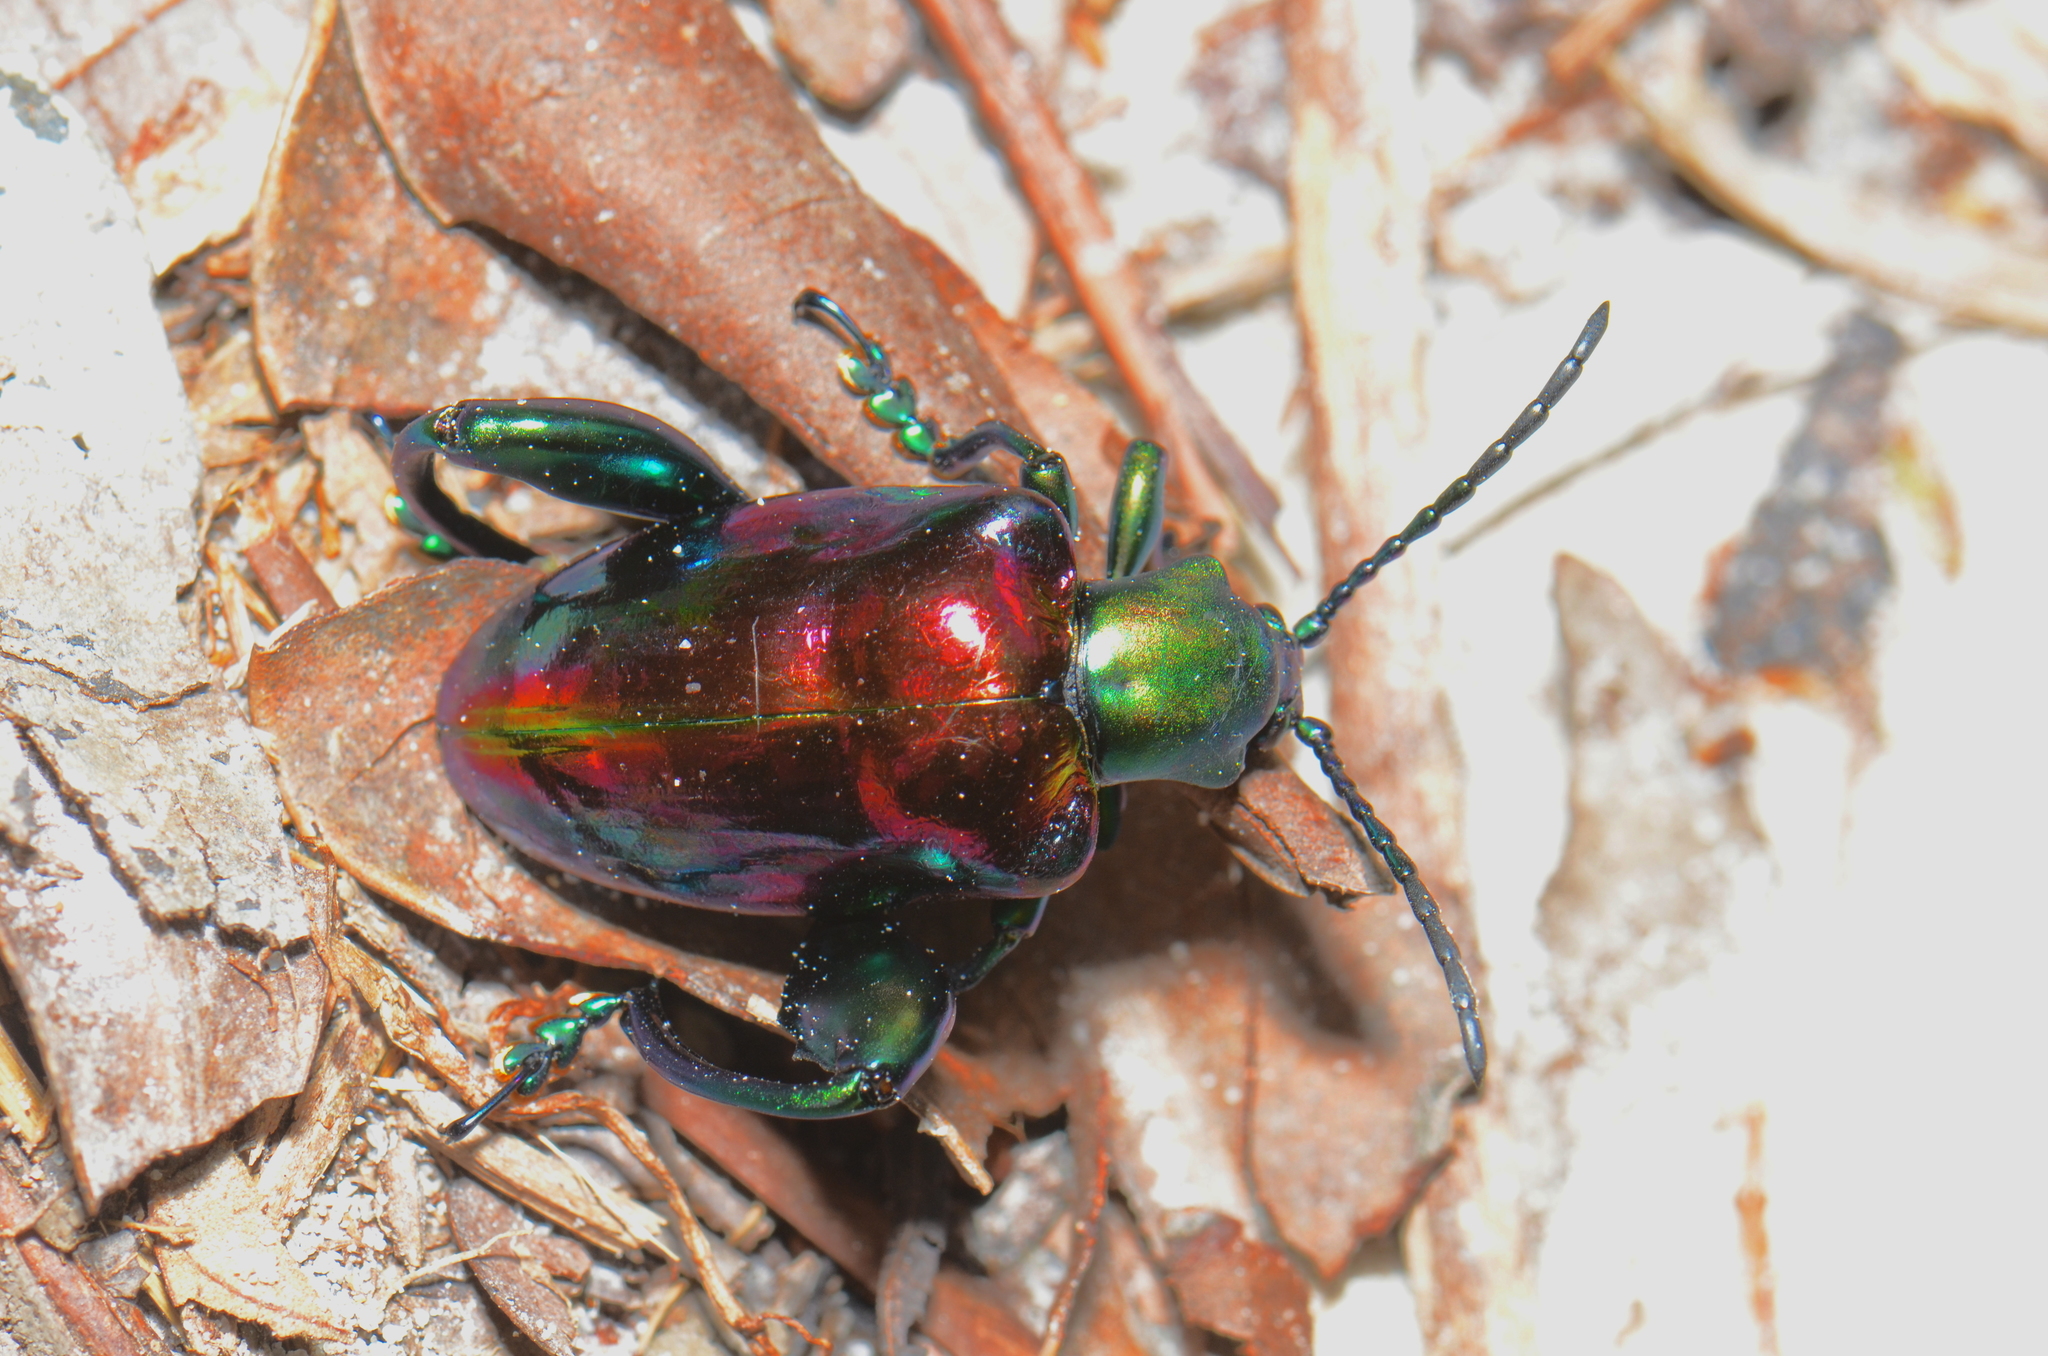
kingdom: Animalia
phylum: Arthropoda
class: Insecta
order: Coleoptera
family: Chrysomelidae
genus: Sagra
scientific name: Sagra buquetii
